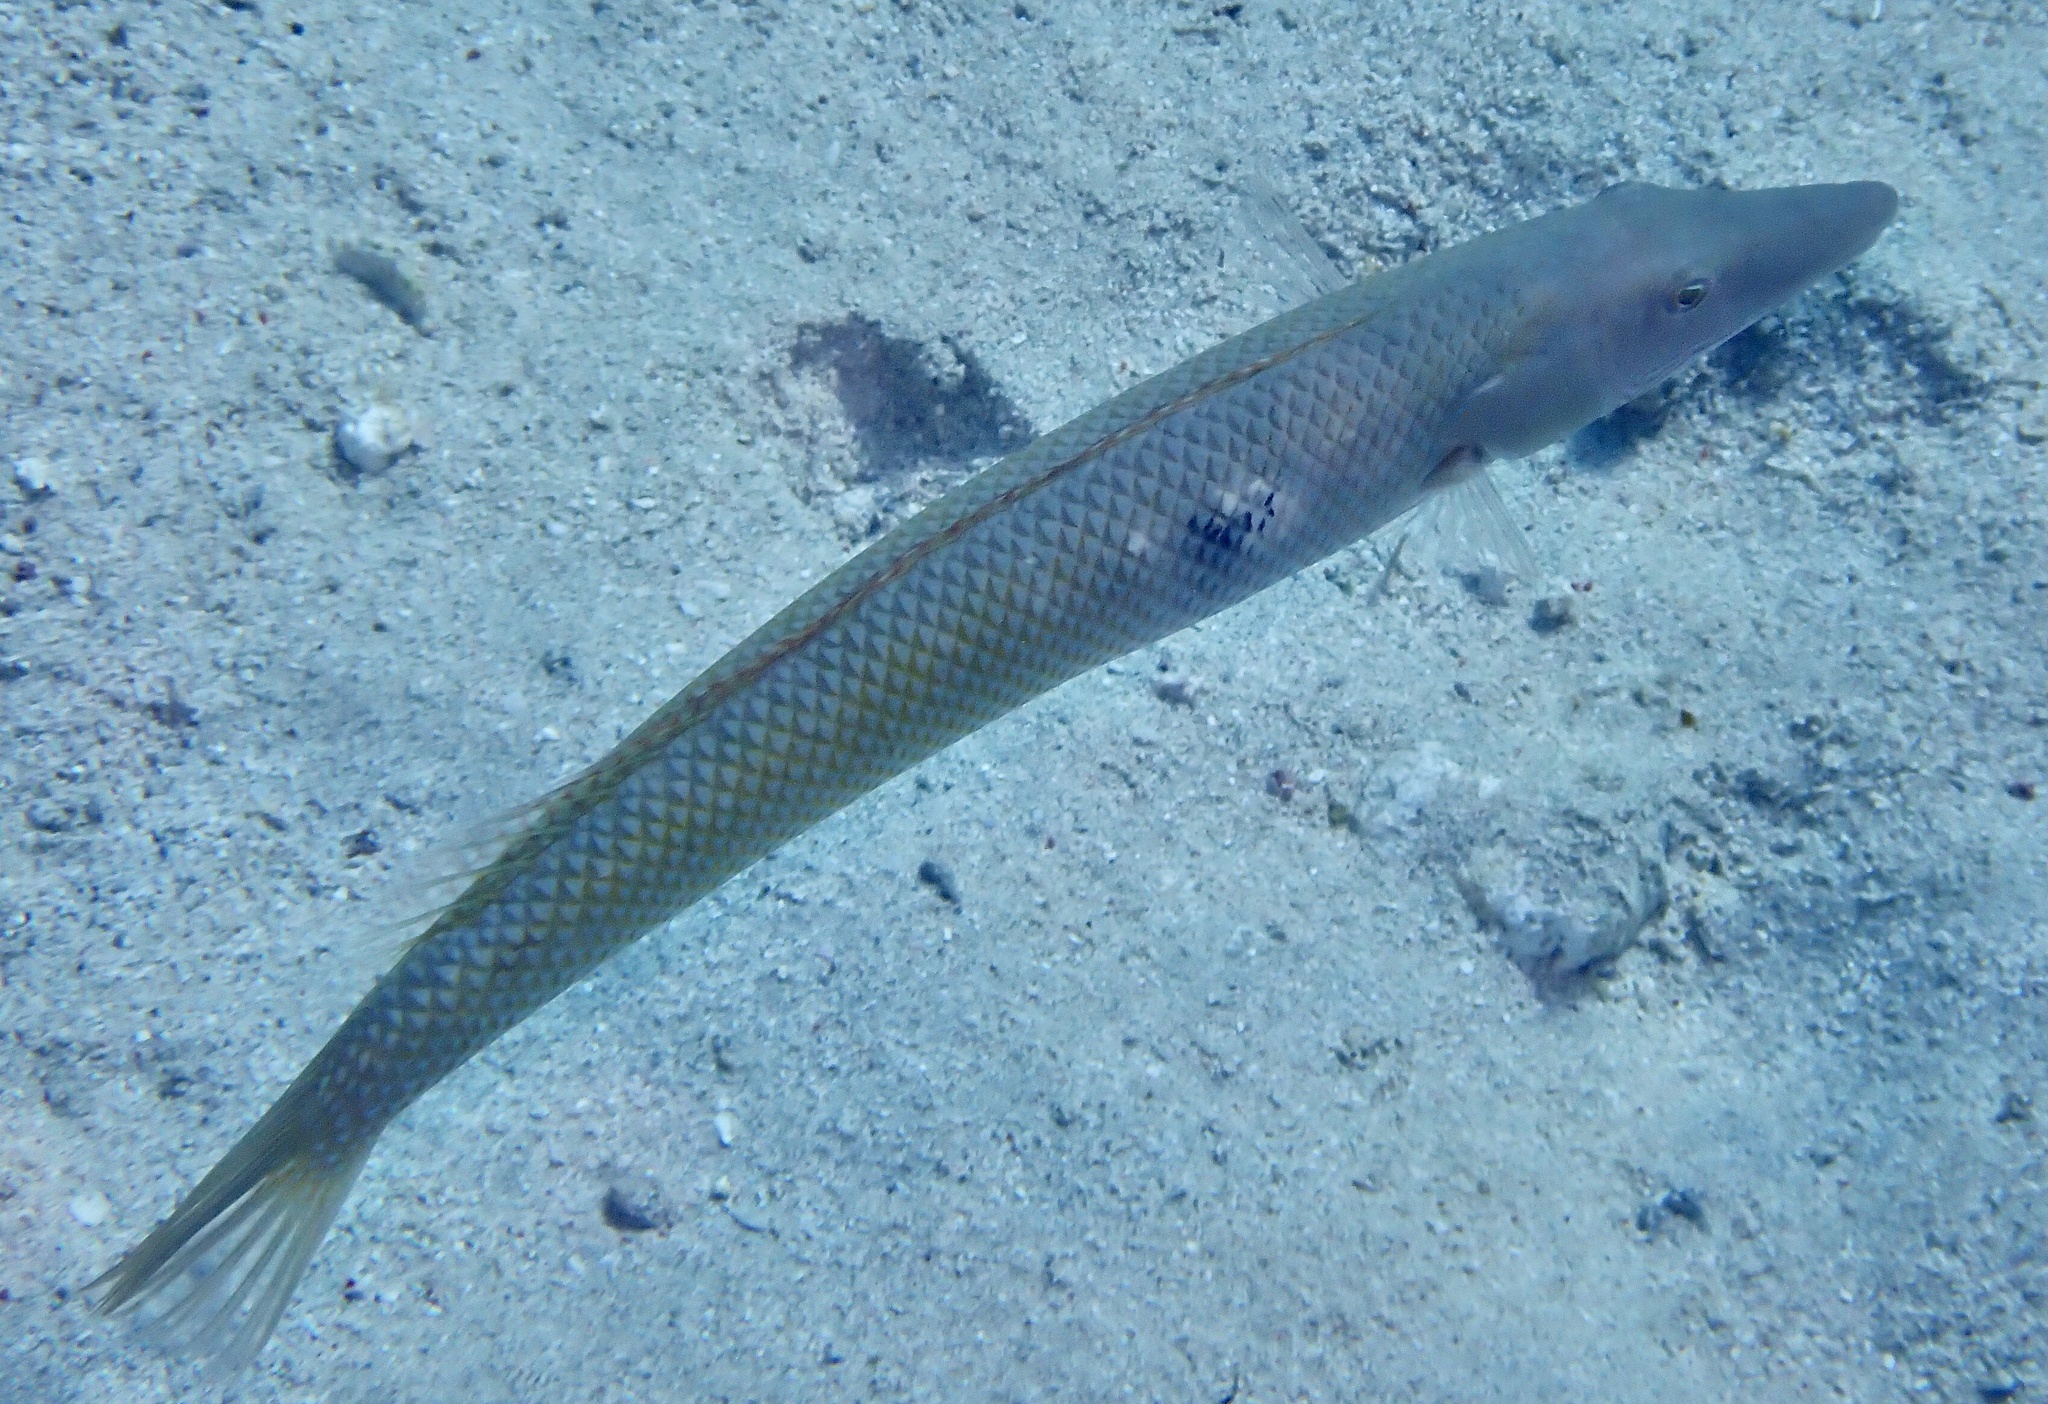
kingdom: Animalia
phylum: Chordata
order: Perciformes
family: Labridae
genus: Cheilio
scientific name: Cheilio inermis
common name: Cigar wrasse
